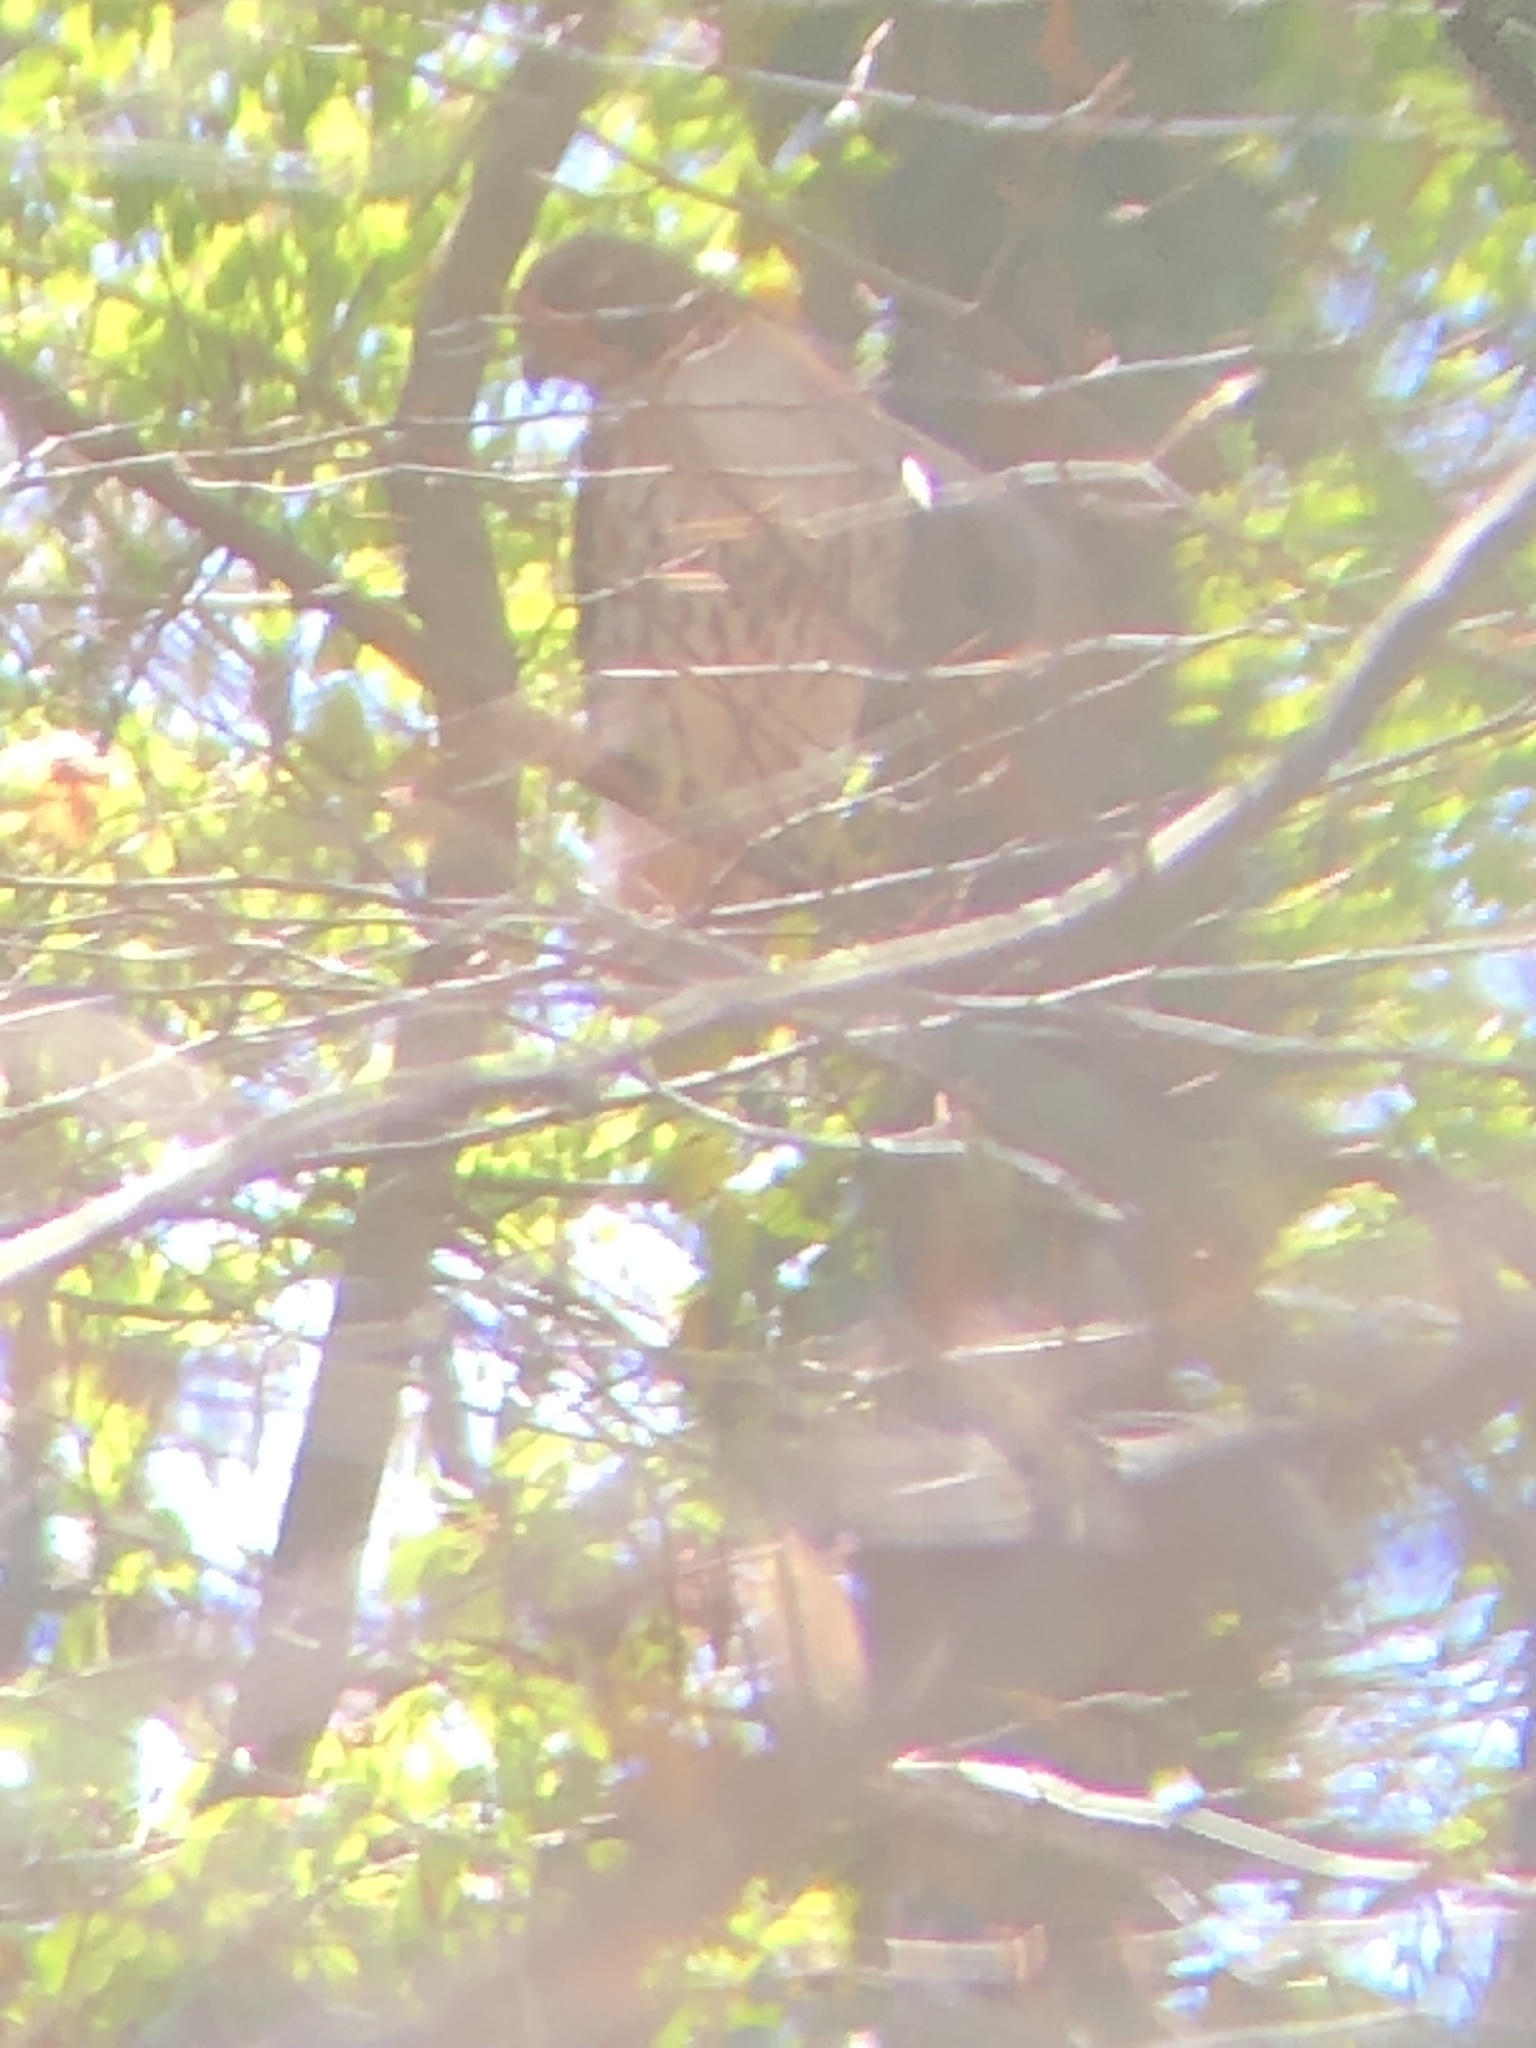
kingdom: Animalia
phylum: Chordata
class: Aves
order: Accipitriformes
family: Accipitridae
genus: Buteo
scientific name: Buteo jamaicensis
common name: Red-tailed hawk
